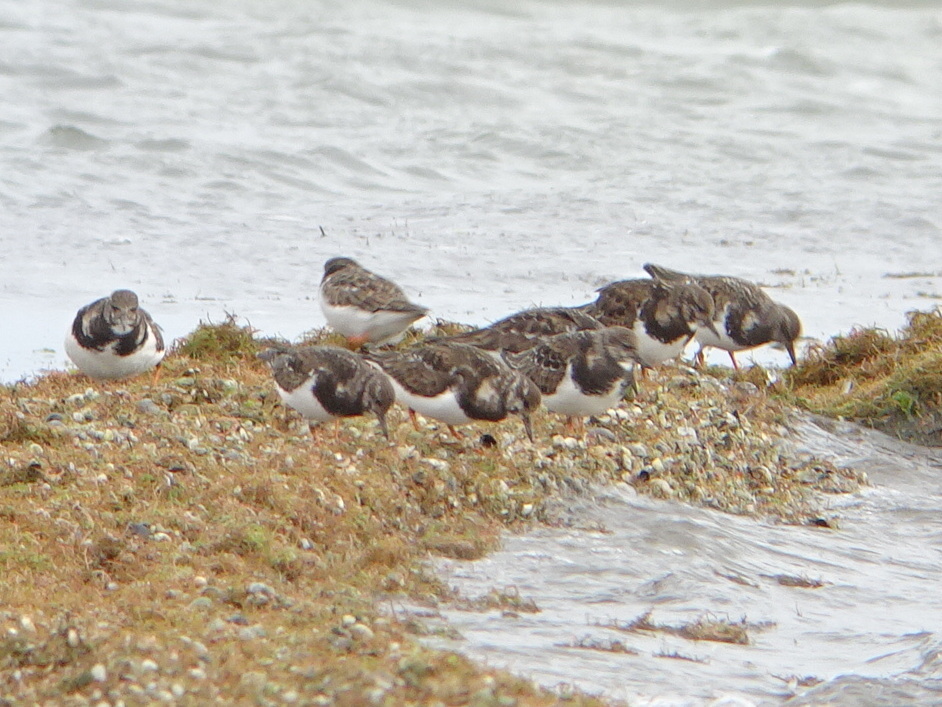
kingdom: Animalia
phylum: Chordata
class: Aves
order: Charadriiformes
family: Scolopacidae
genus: Arenaria
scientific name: Arenaria interpres
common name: Ruddy turnstone
